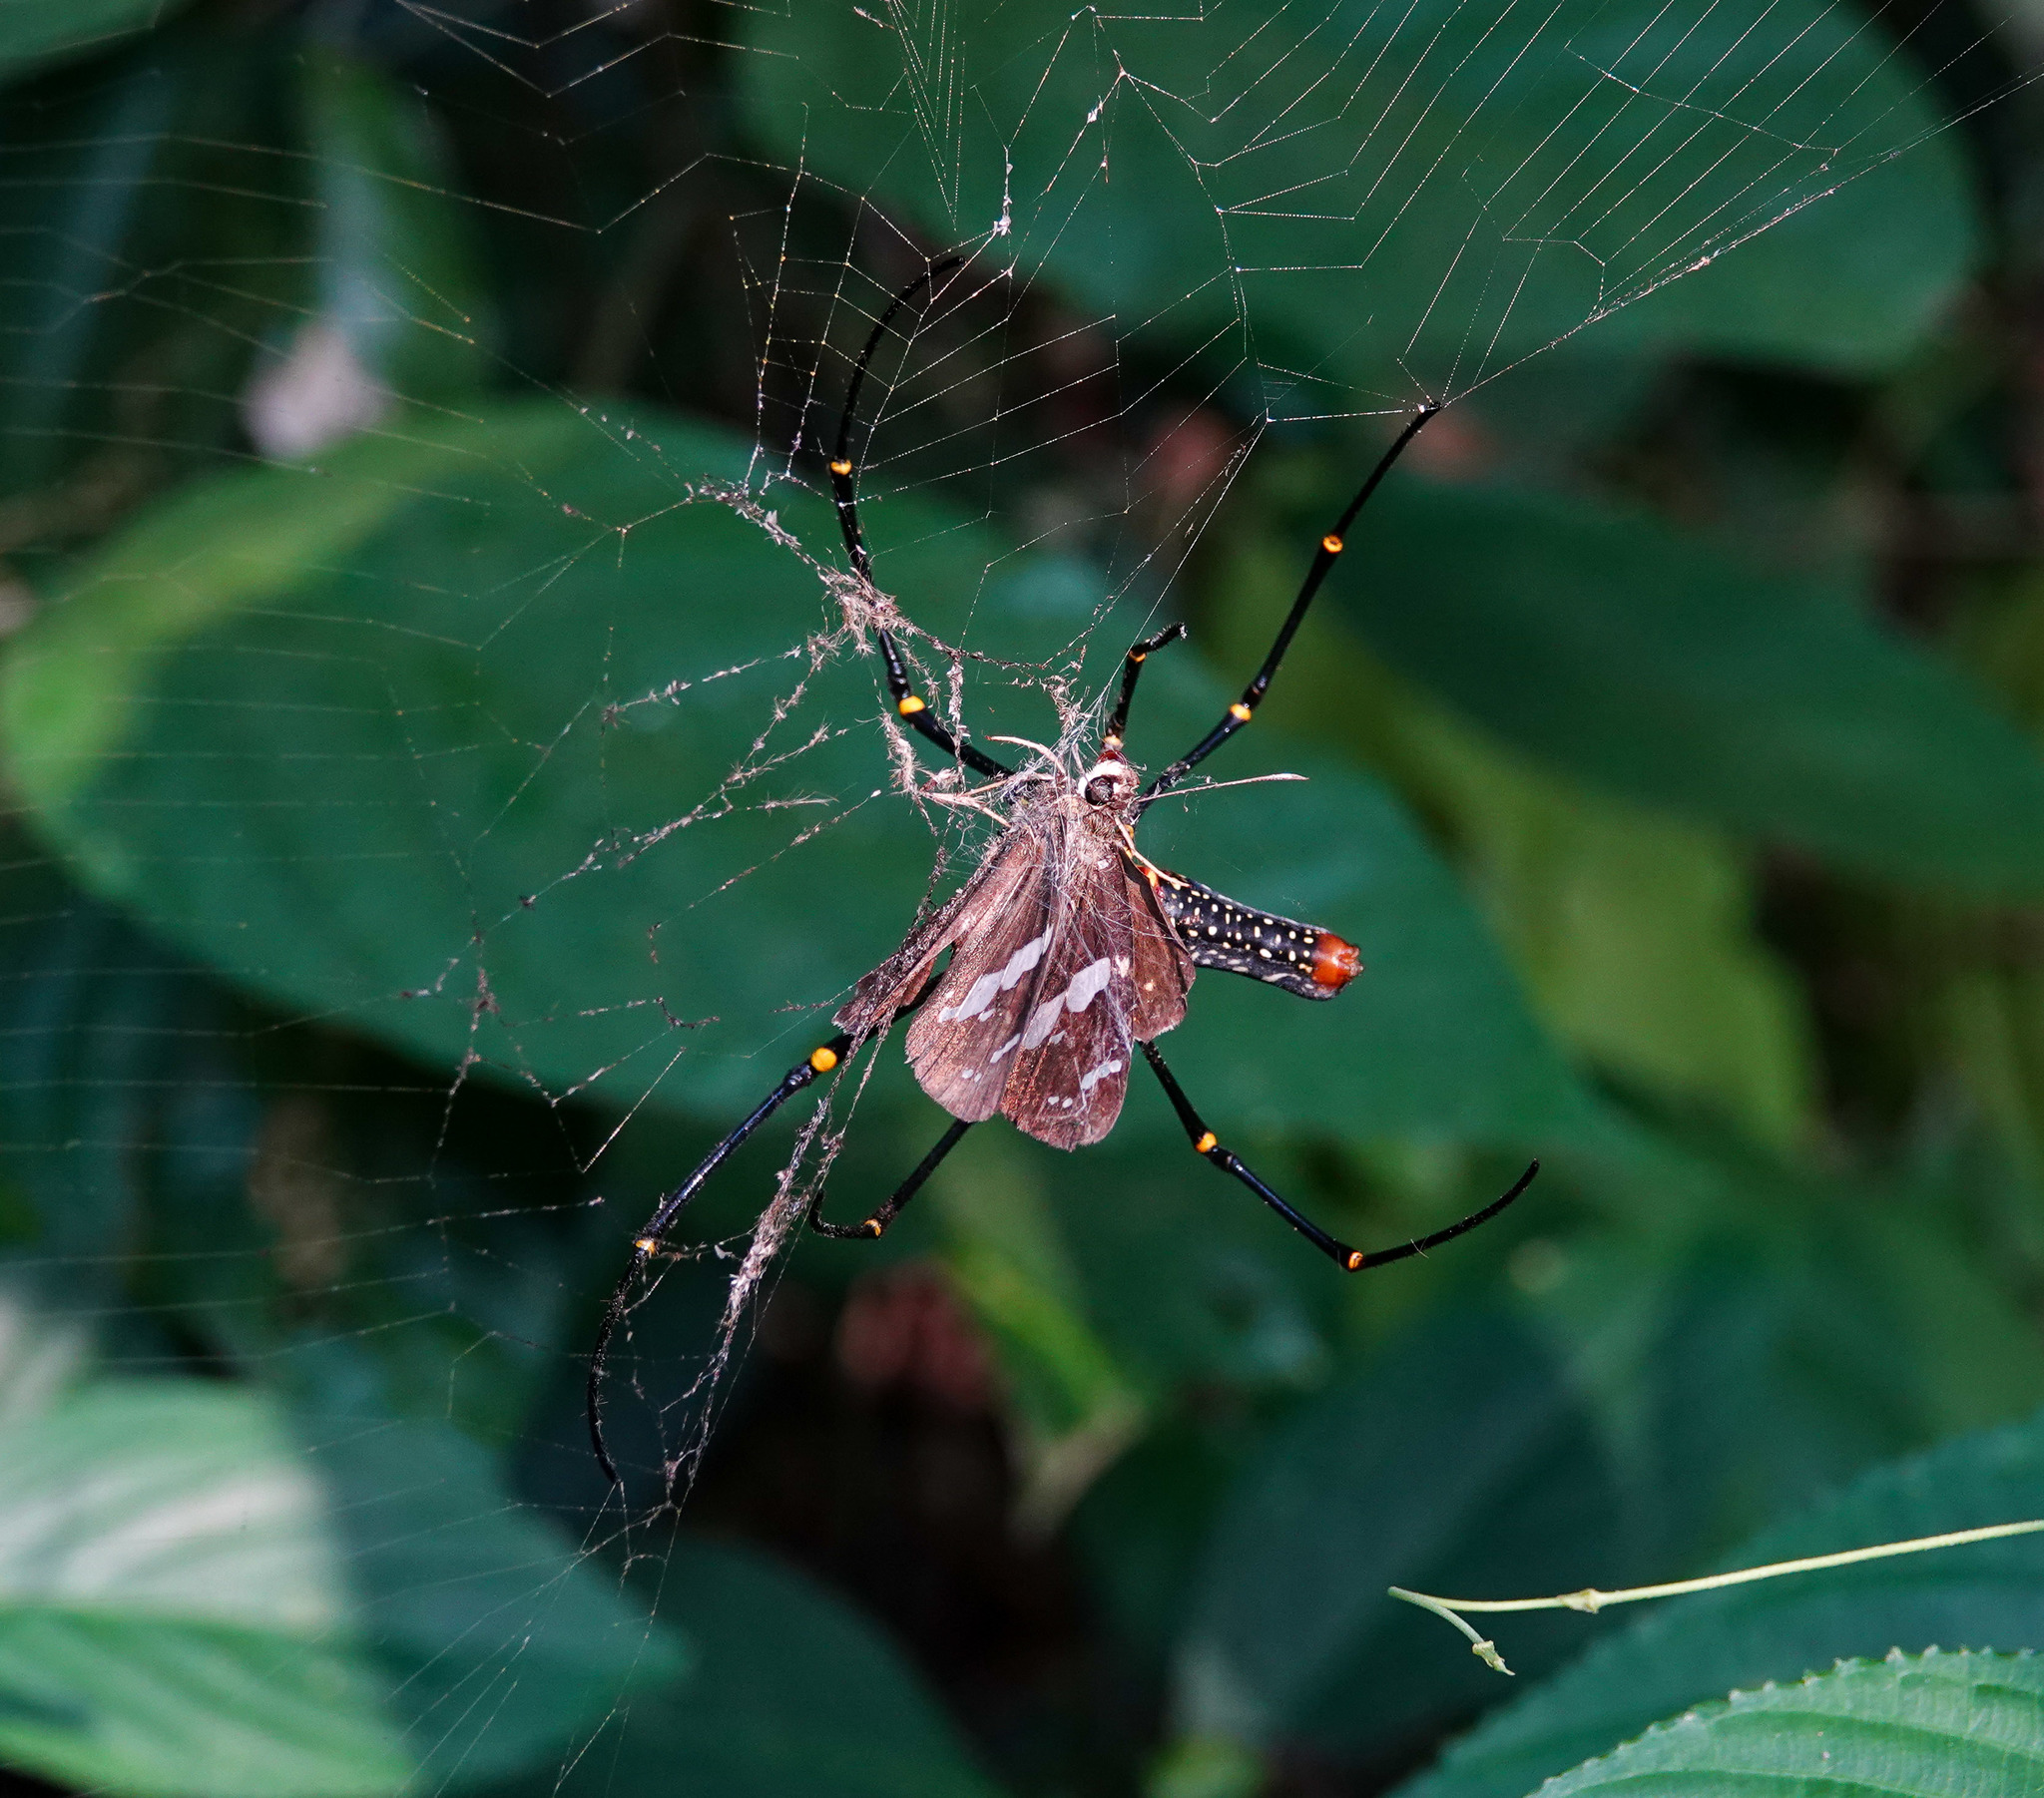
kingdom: Animalia
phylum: Arthropoda
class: Arachnida
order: Araneae
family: Araneidae
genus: Nephila
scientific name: Nephila pilipes
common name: Giant golden orb weaver
